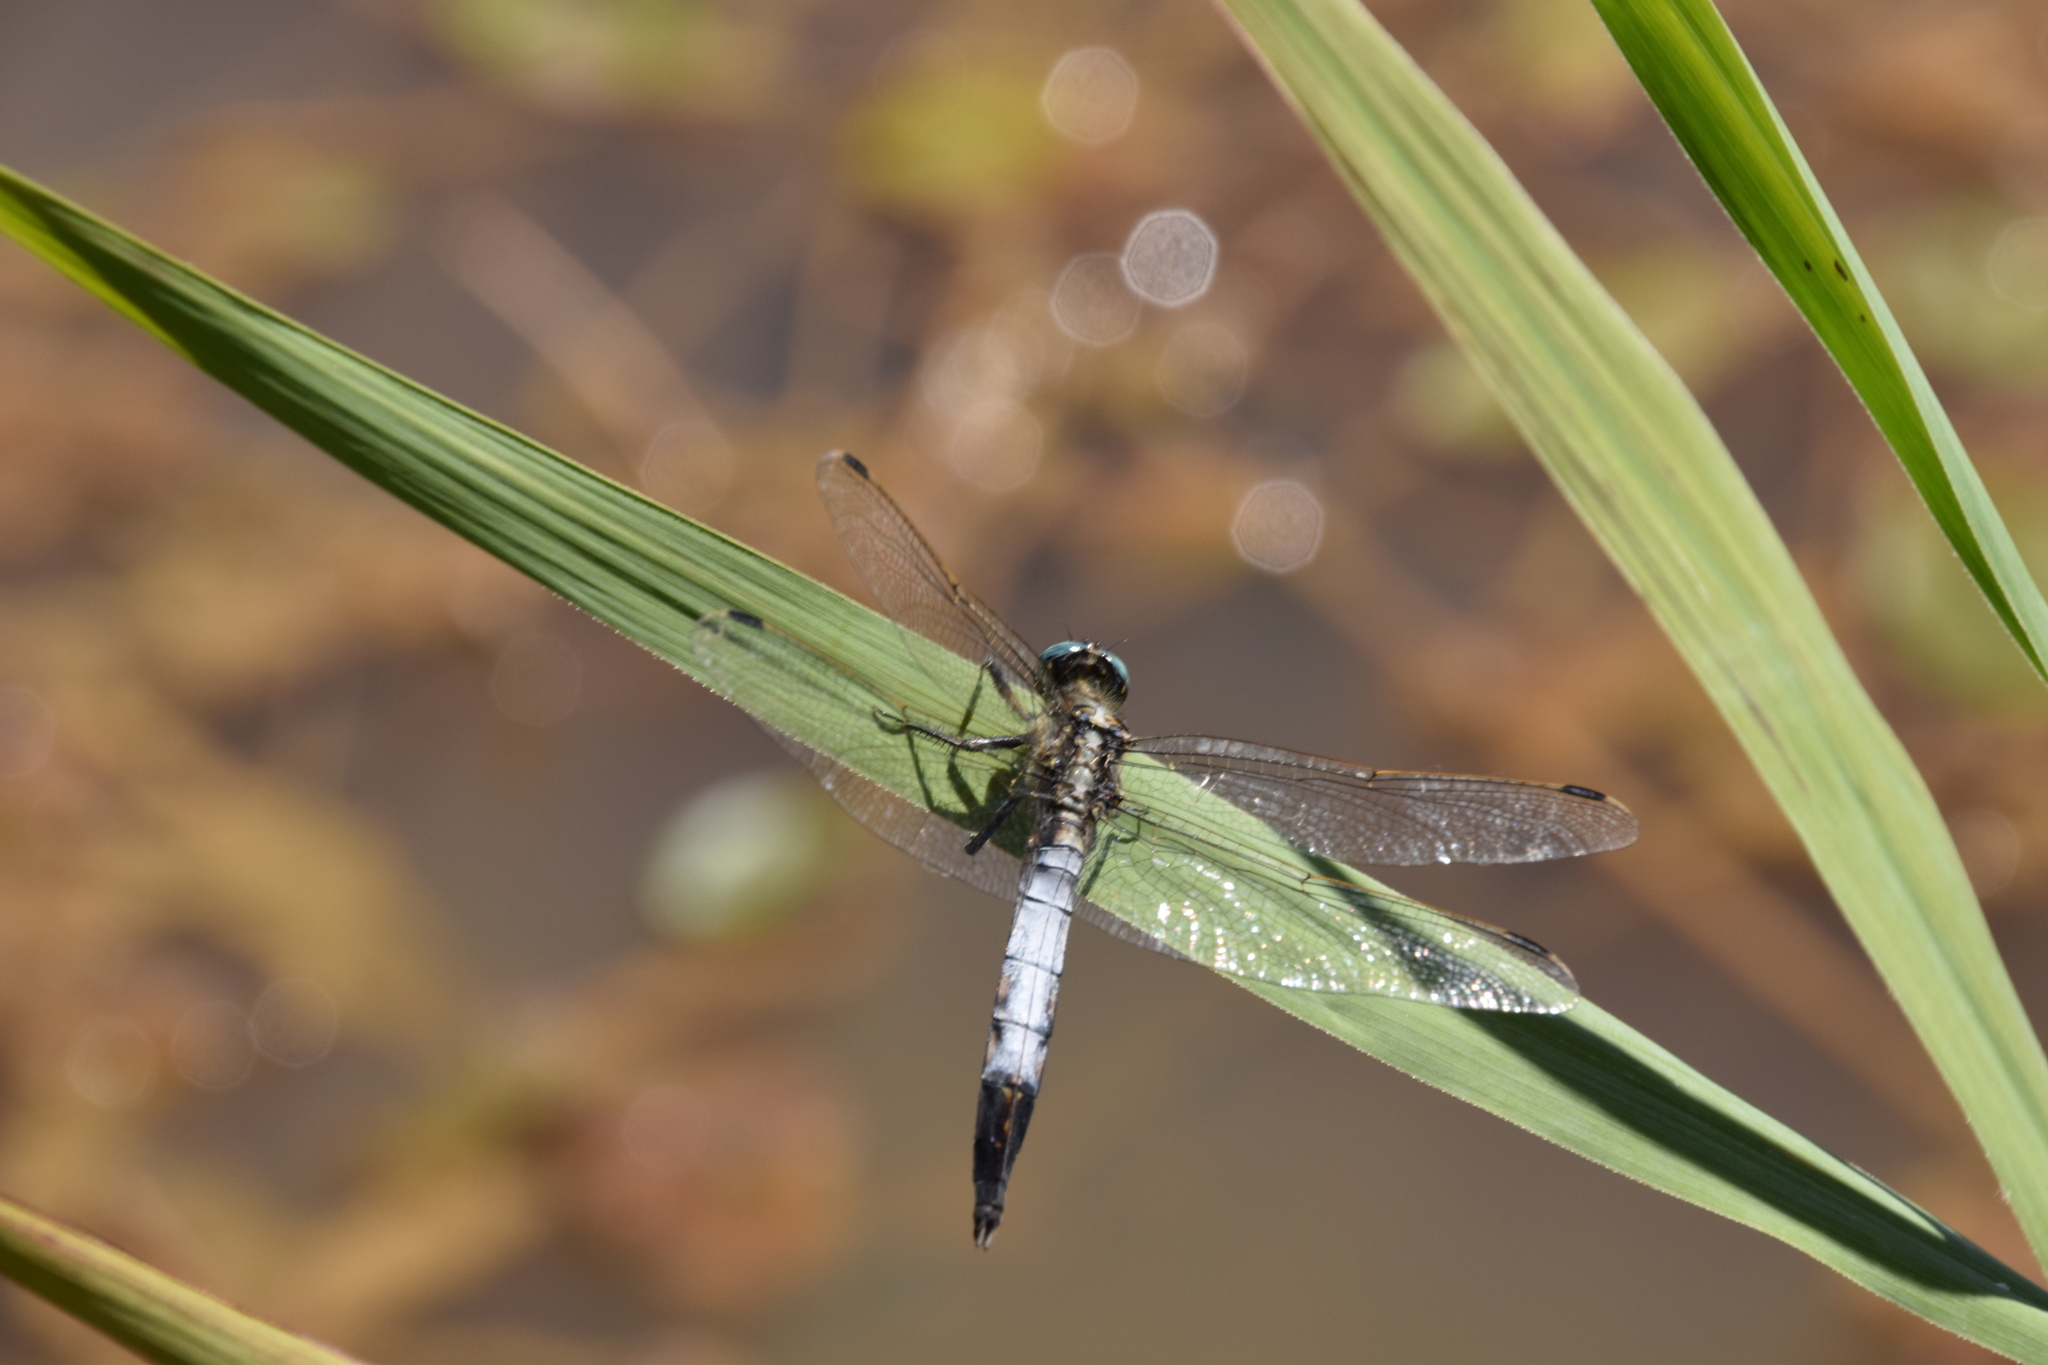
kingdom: Animalia
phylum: Arthropoda
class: Insecta
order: Odonata
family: Libellulidae
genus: Orthetrum
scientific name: Orthetrum albistylum
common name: White-tailed skimmer
